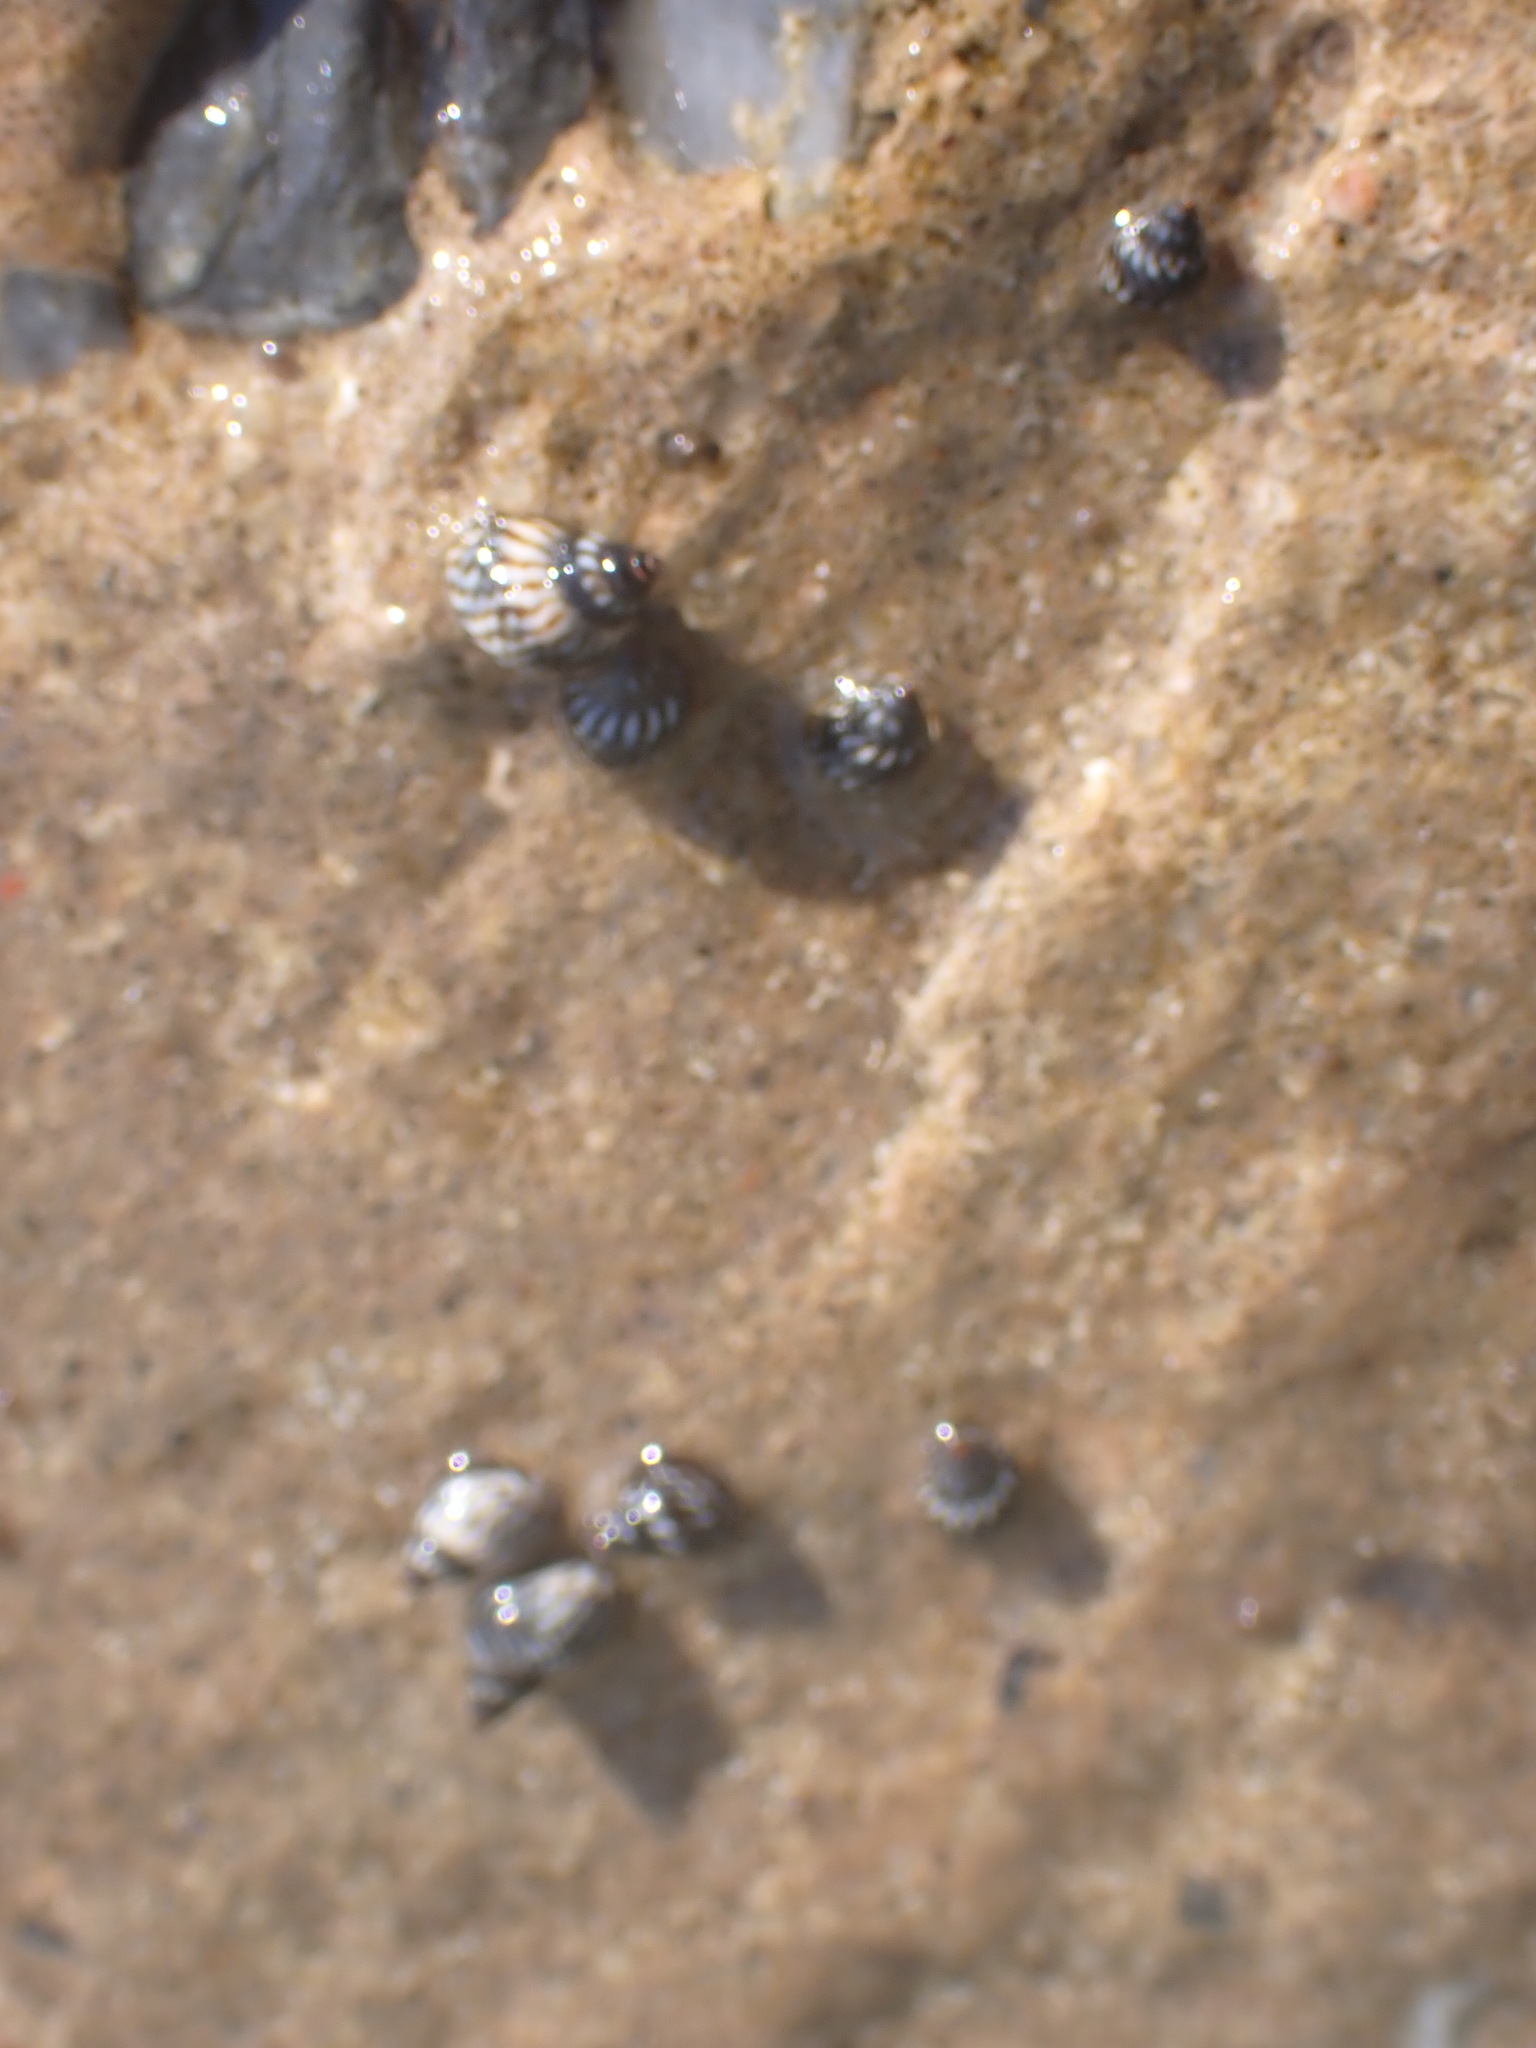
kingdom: Animalia
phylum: Mollusca
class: Gastropoda
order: Littorinimorpha
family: Littorinidae
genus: Echinolittorina
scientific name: Echinolittorina placida
